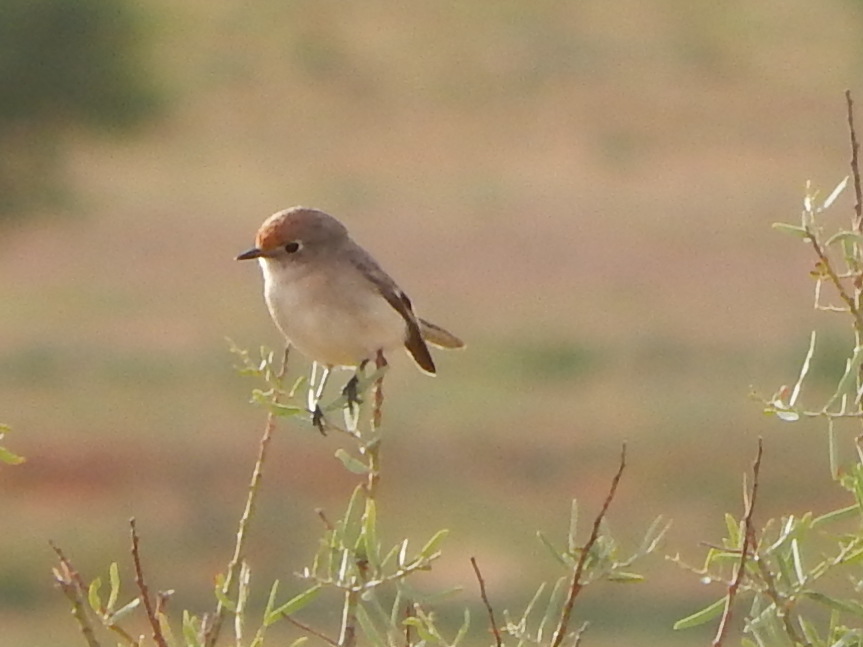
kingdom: Animalia
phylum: Chordata
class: Aves
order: Passeriformes
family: Petroicidae
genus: Petroica
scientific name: Petroica goodenovii
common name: Red-capped robin
